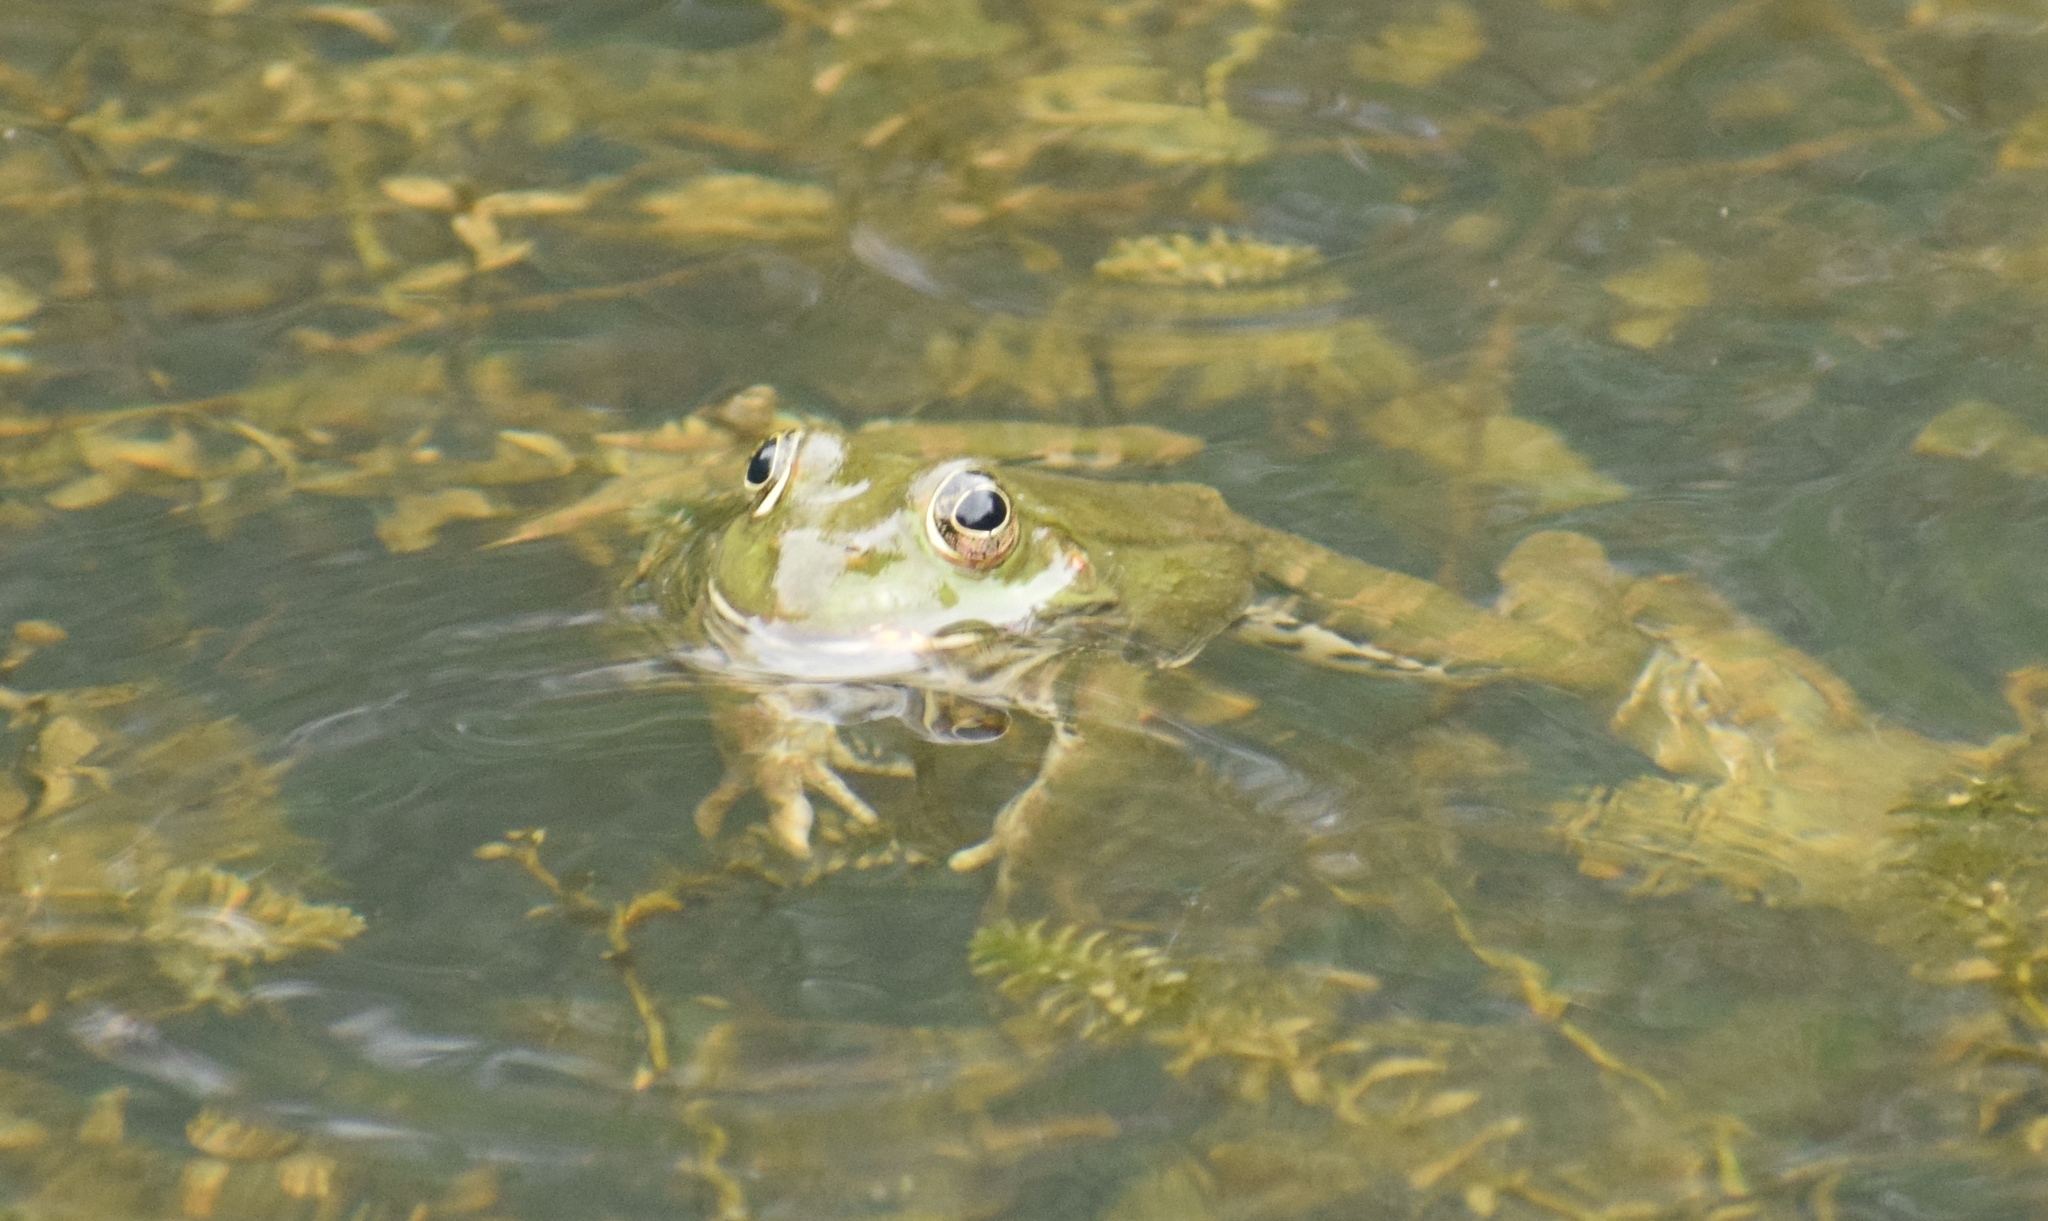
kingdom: Animalia
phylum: Chordata
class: Amphibia
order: Anura
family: Ranidae
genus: Pelophylax
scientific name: Pelophylax
